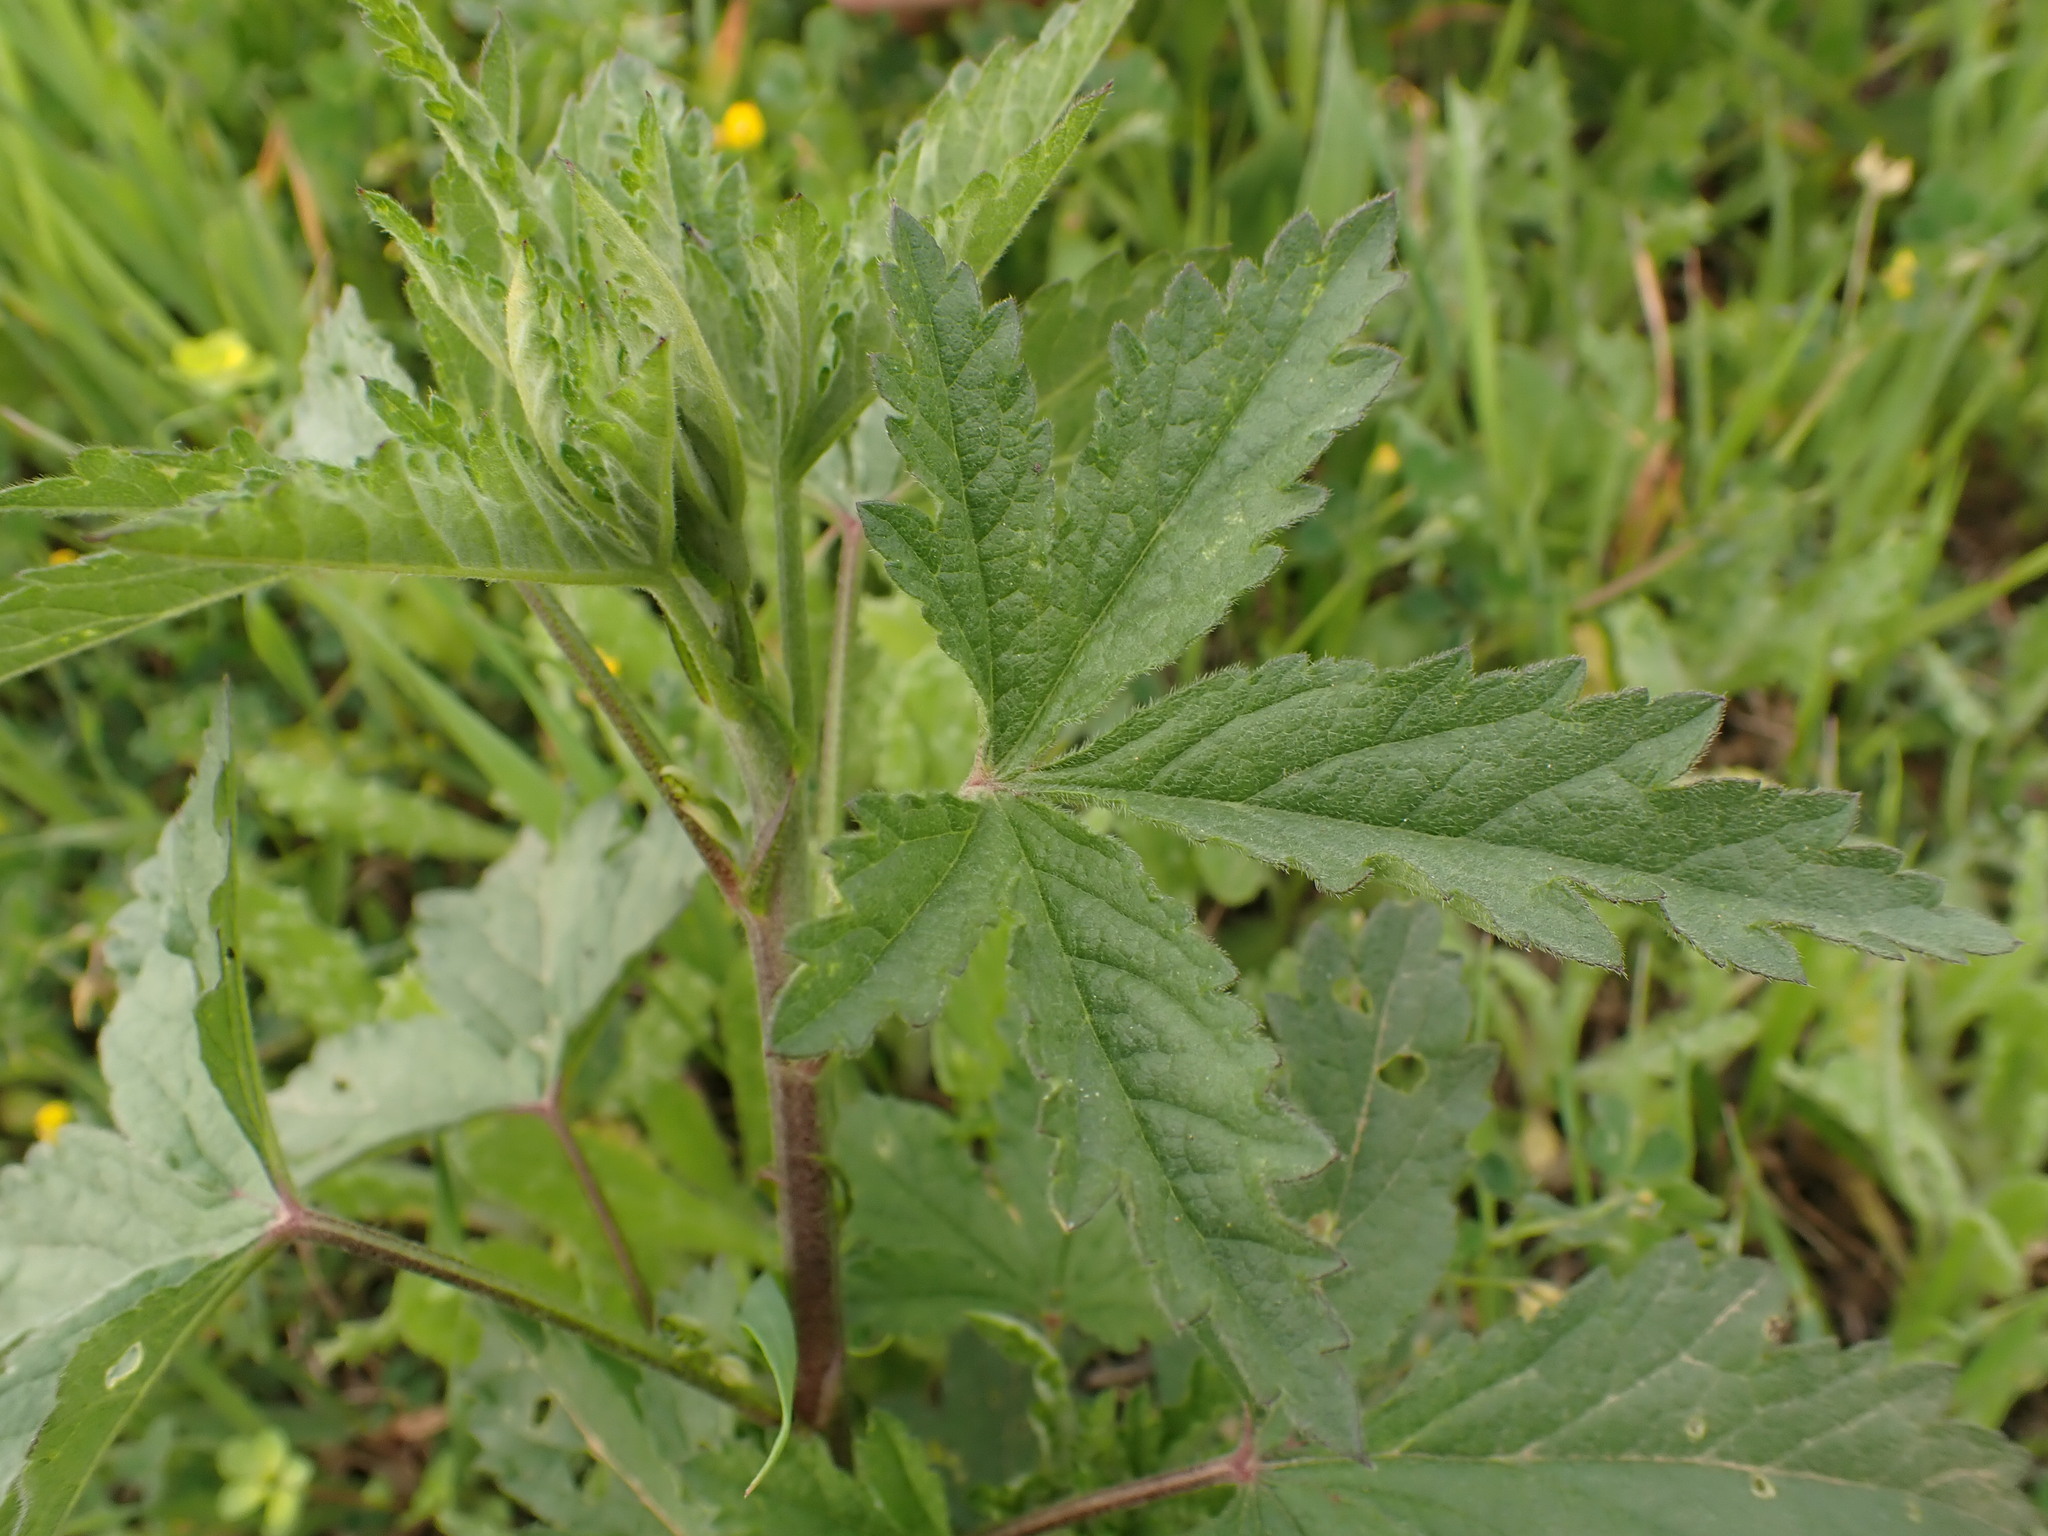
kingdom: Plantae
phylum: Tracheophyta
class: Magnoliopsida
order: Malvales
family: Malvaceae
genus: Althaea
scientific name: Althaea cannabina
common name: Palm-leaf marshmallow
